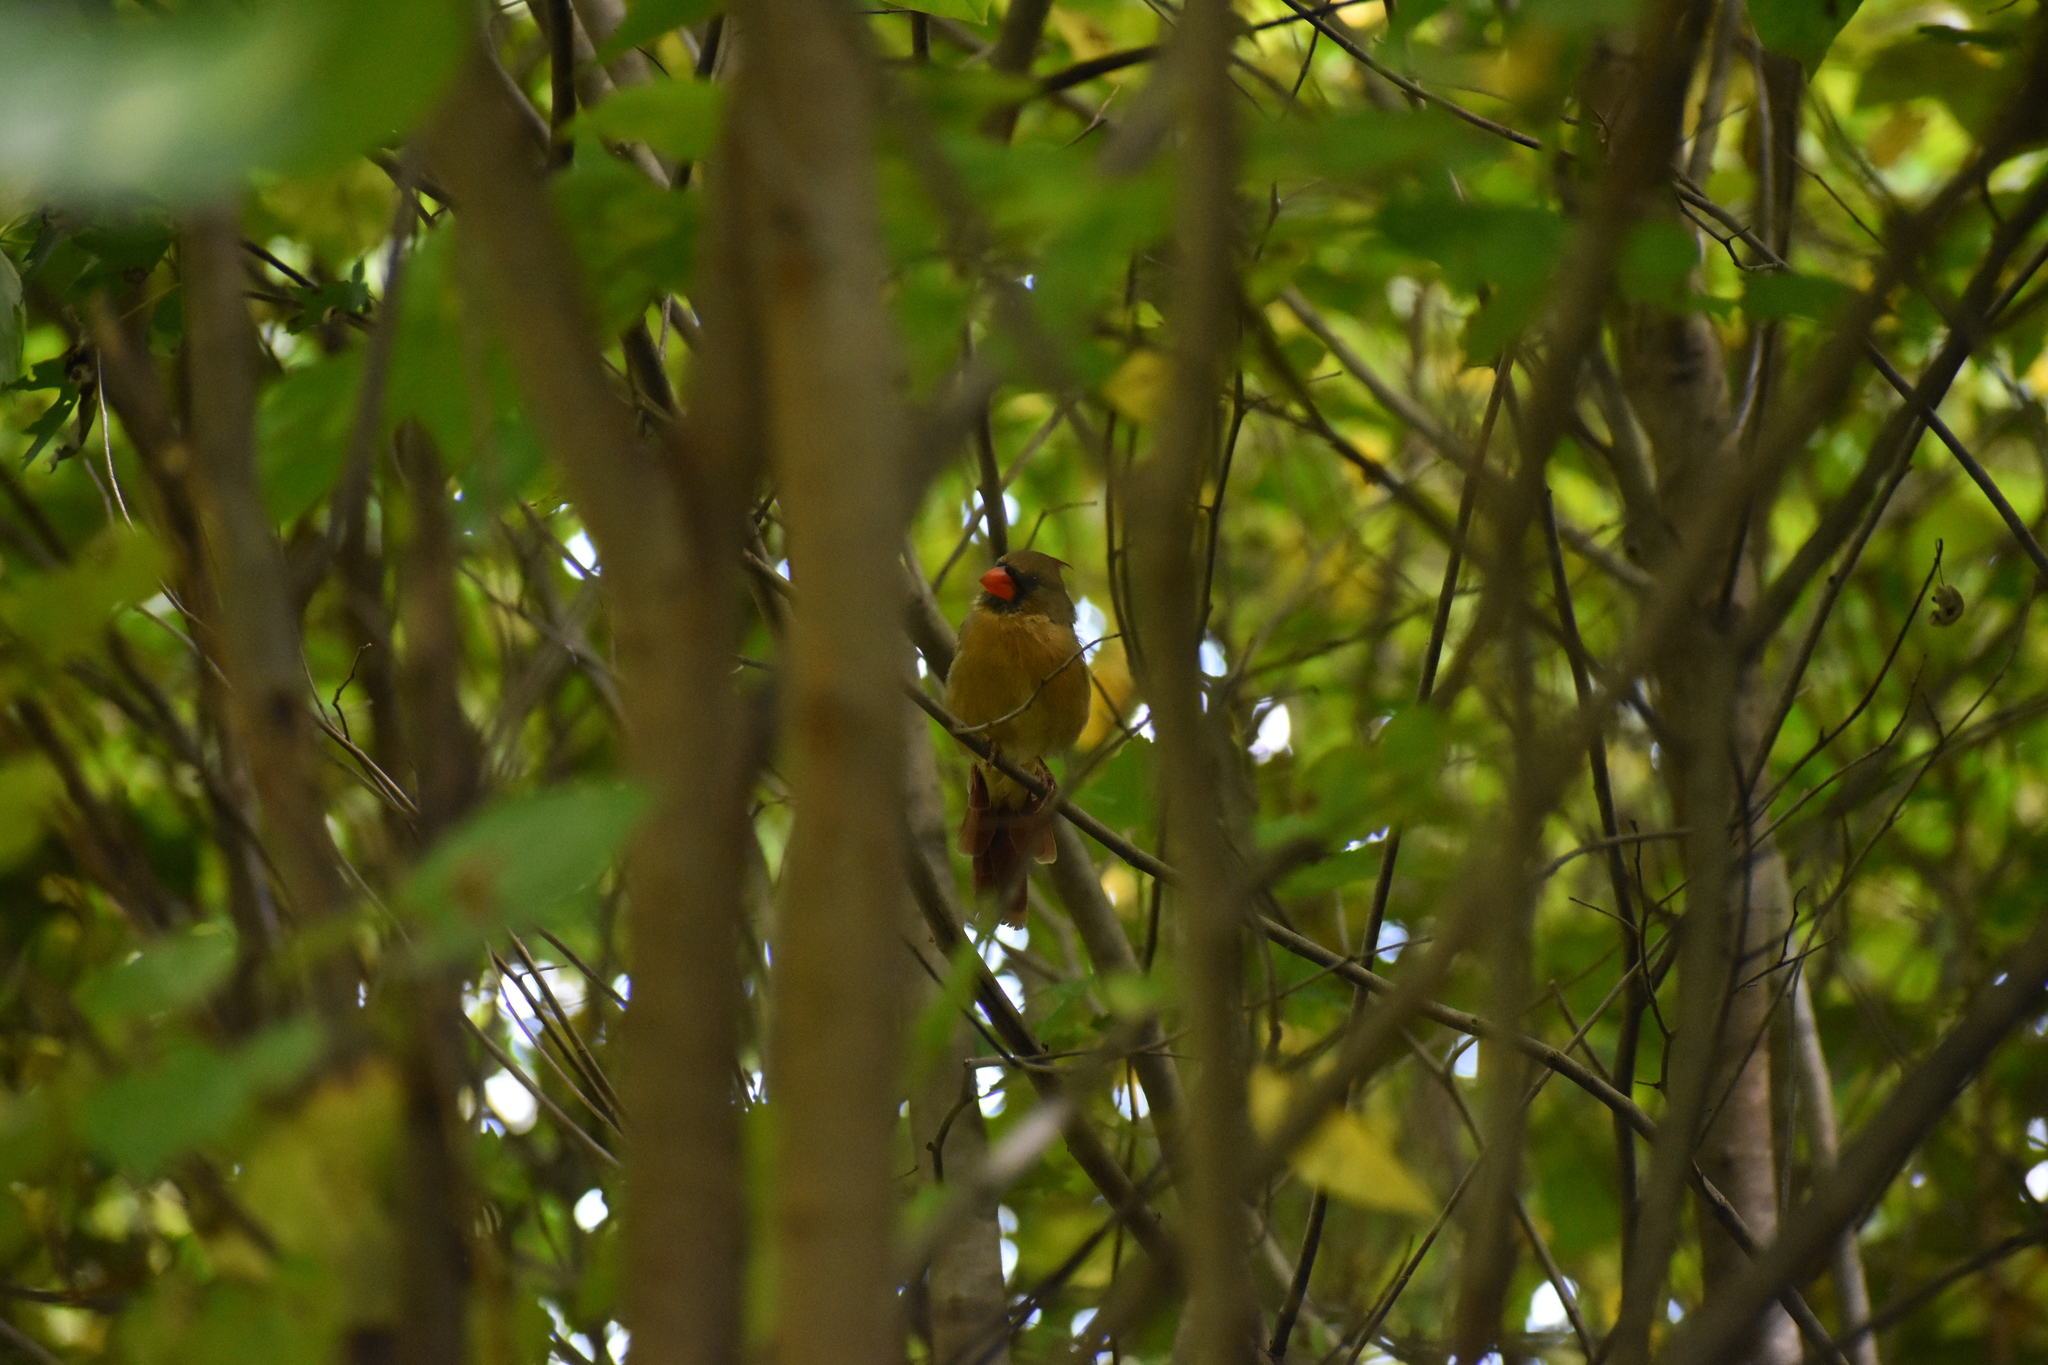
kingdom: Animalia
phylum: Chordata
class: Aves
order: Passeriformes
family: Cardinalidae
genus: Cardinalis
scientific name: Cardinalis cardinalis
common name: Northern cardinal
